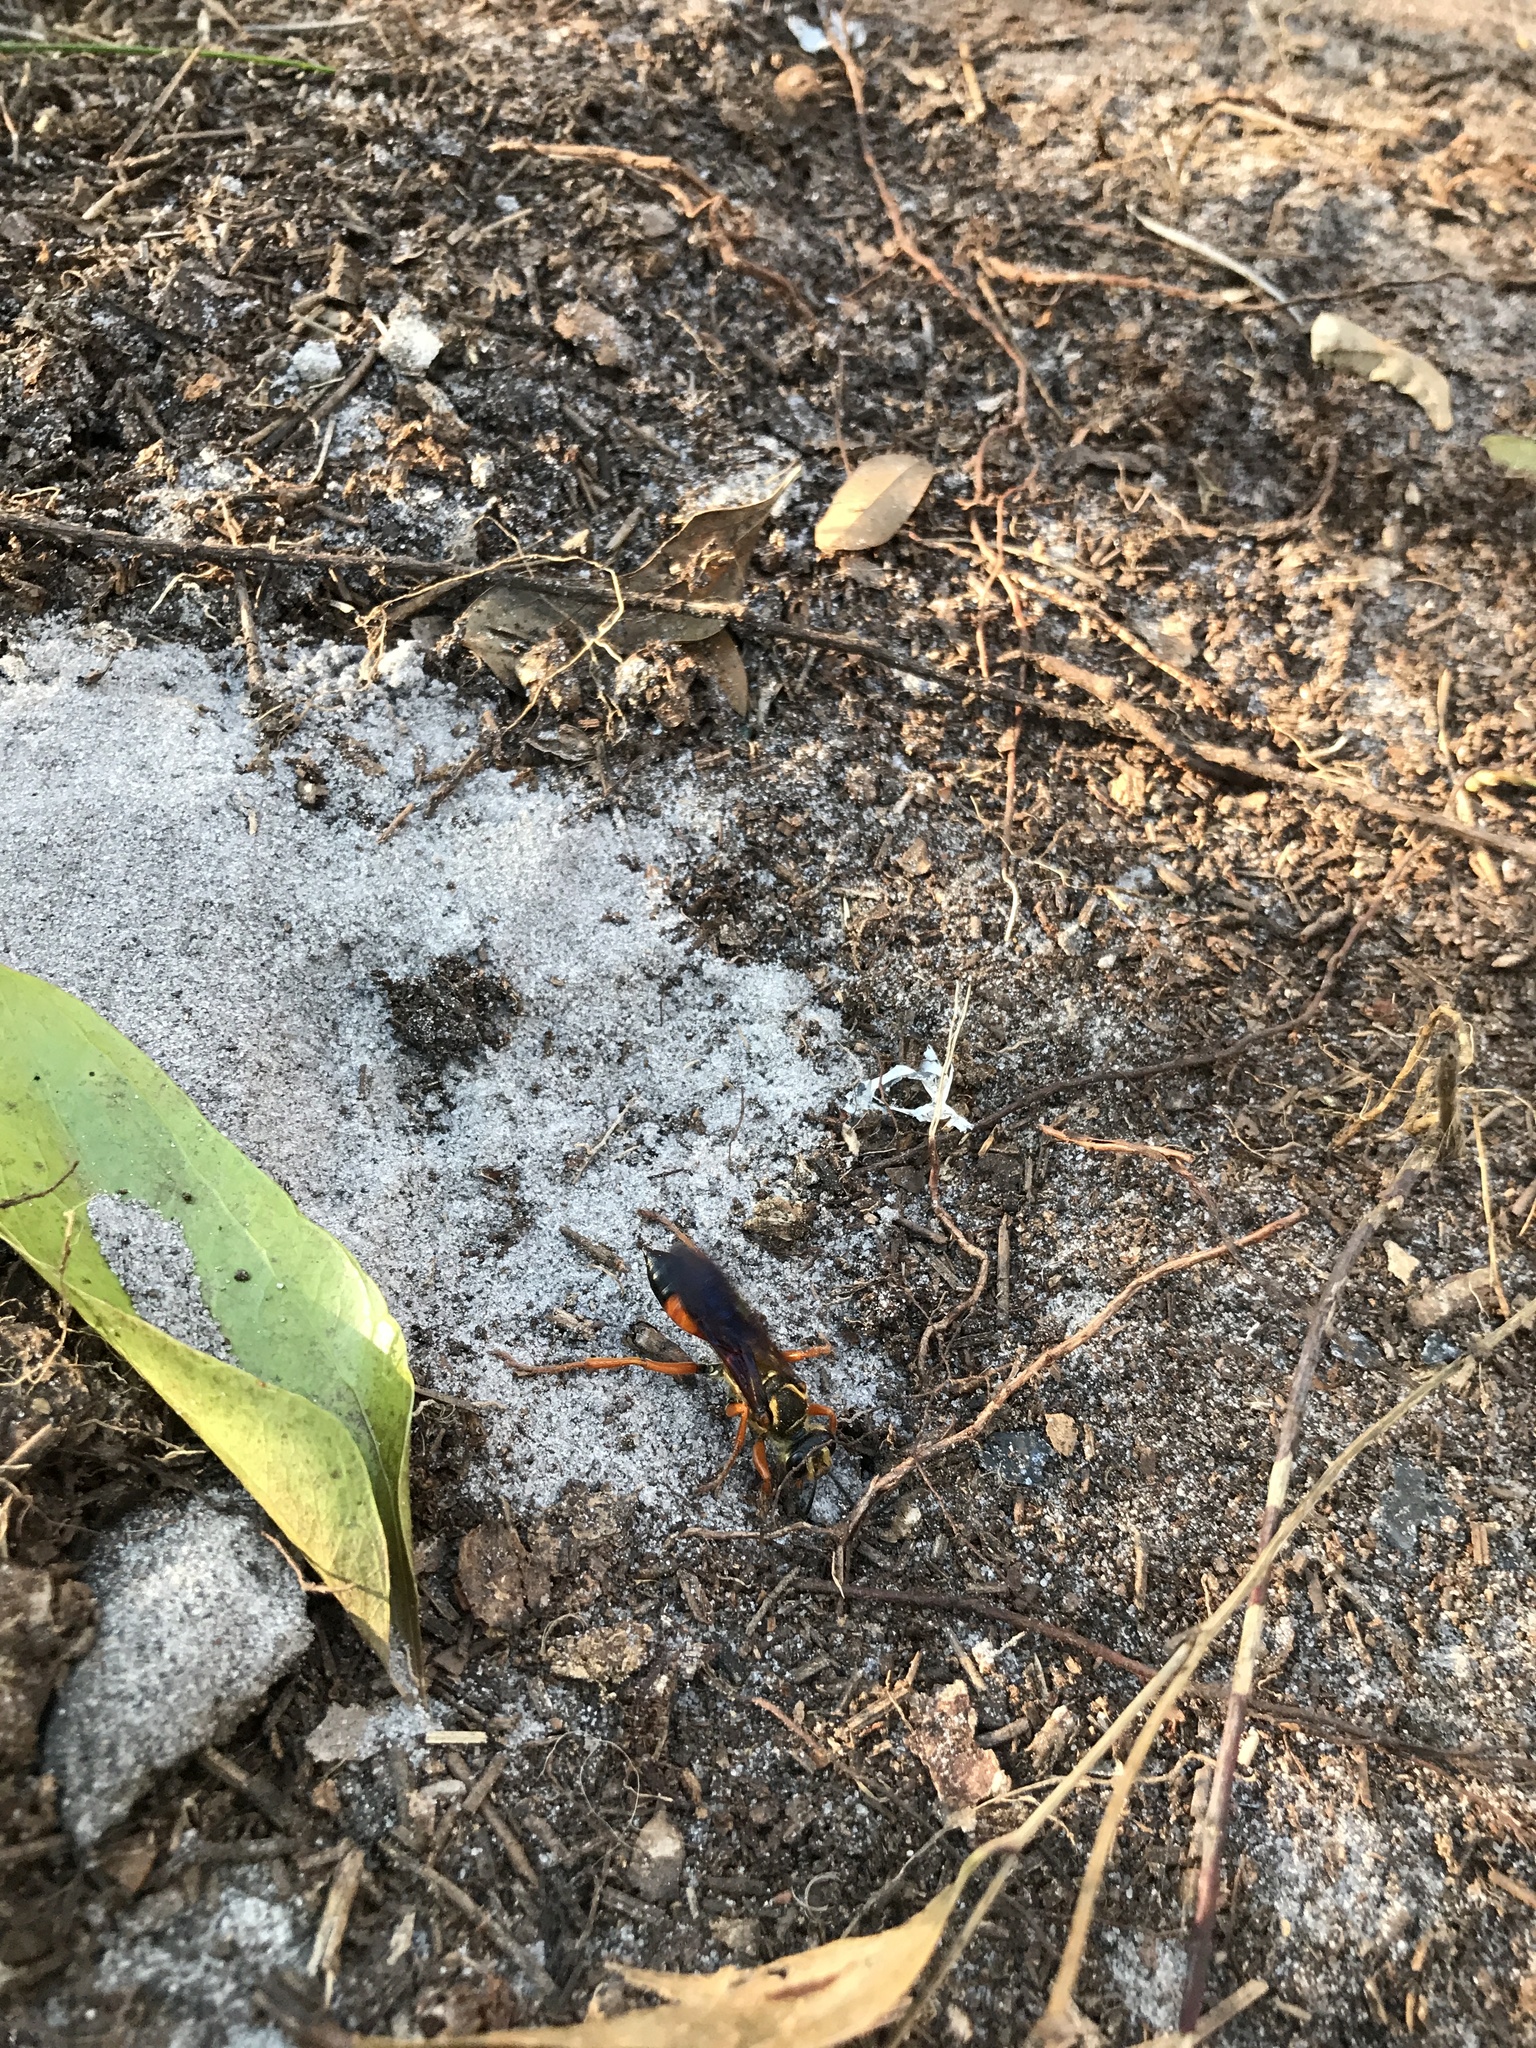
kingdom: Animalia
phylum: Arthropoda
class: Insecta
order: Hymenoptera
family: Sphecidae
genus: Sphex
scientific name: Sphex ichneumoneus
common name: Great golden digger wasp
